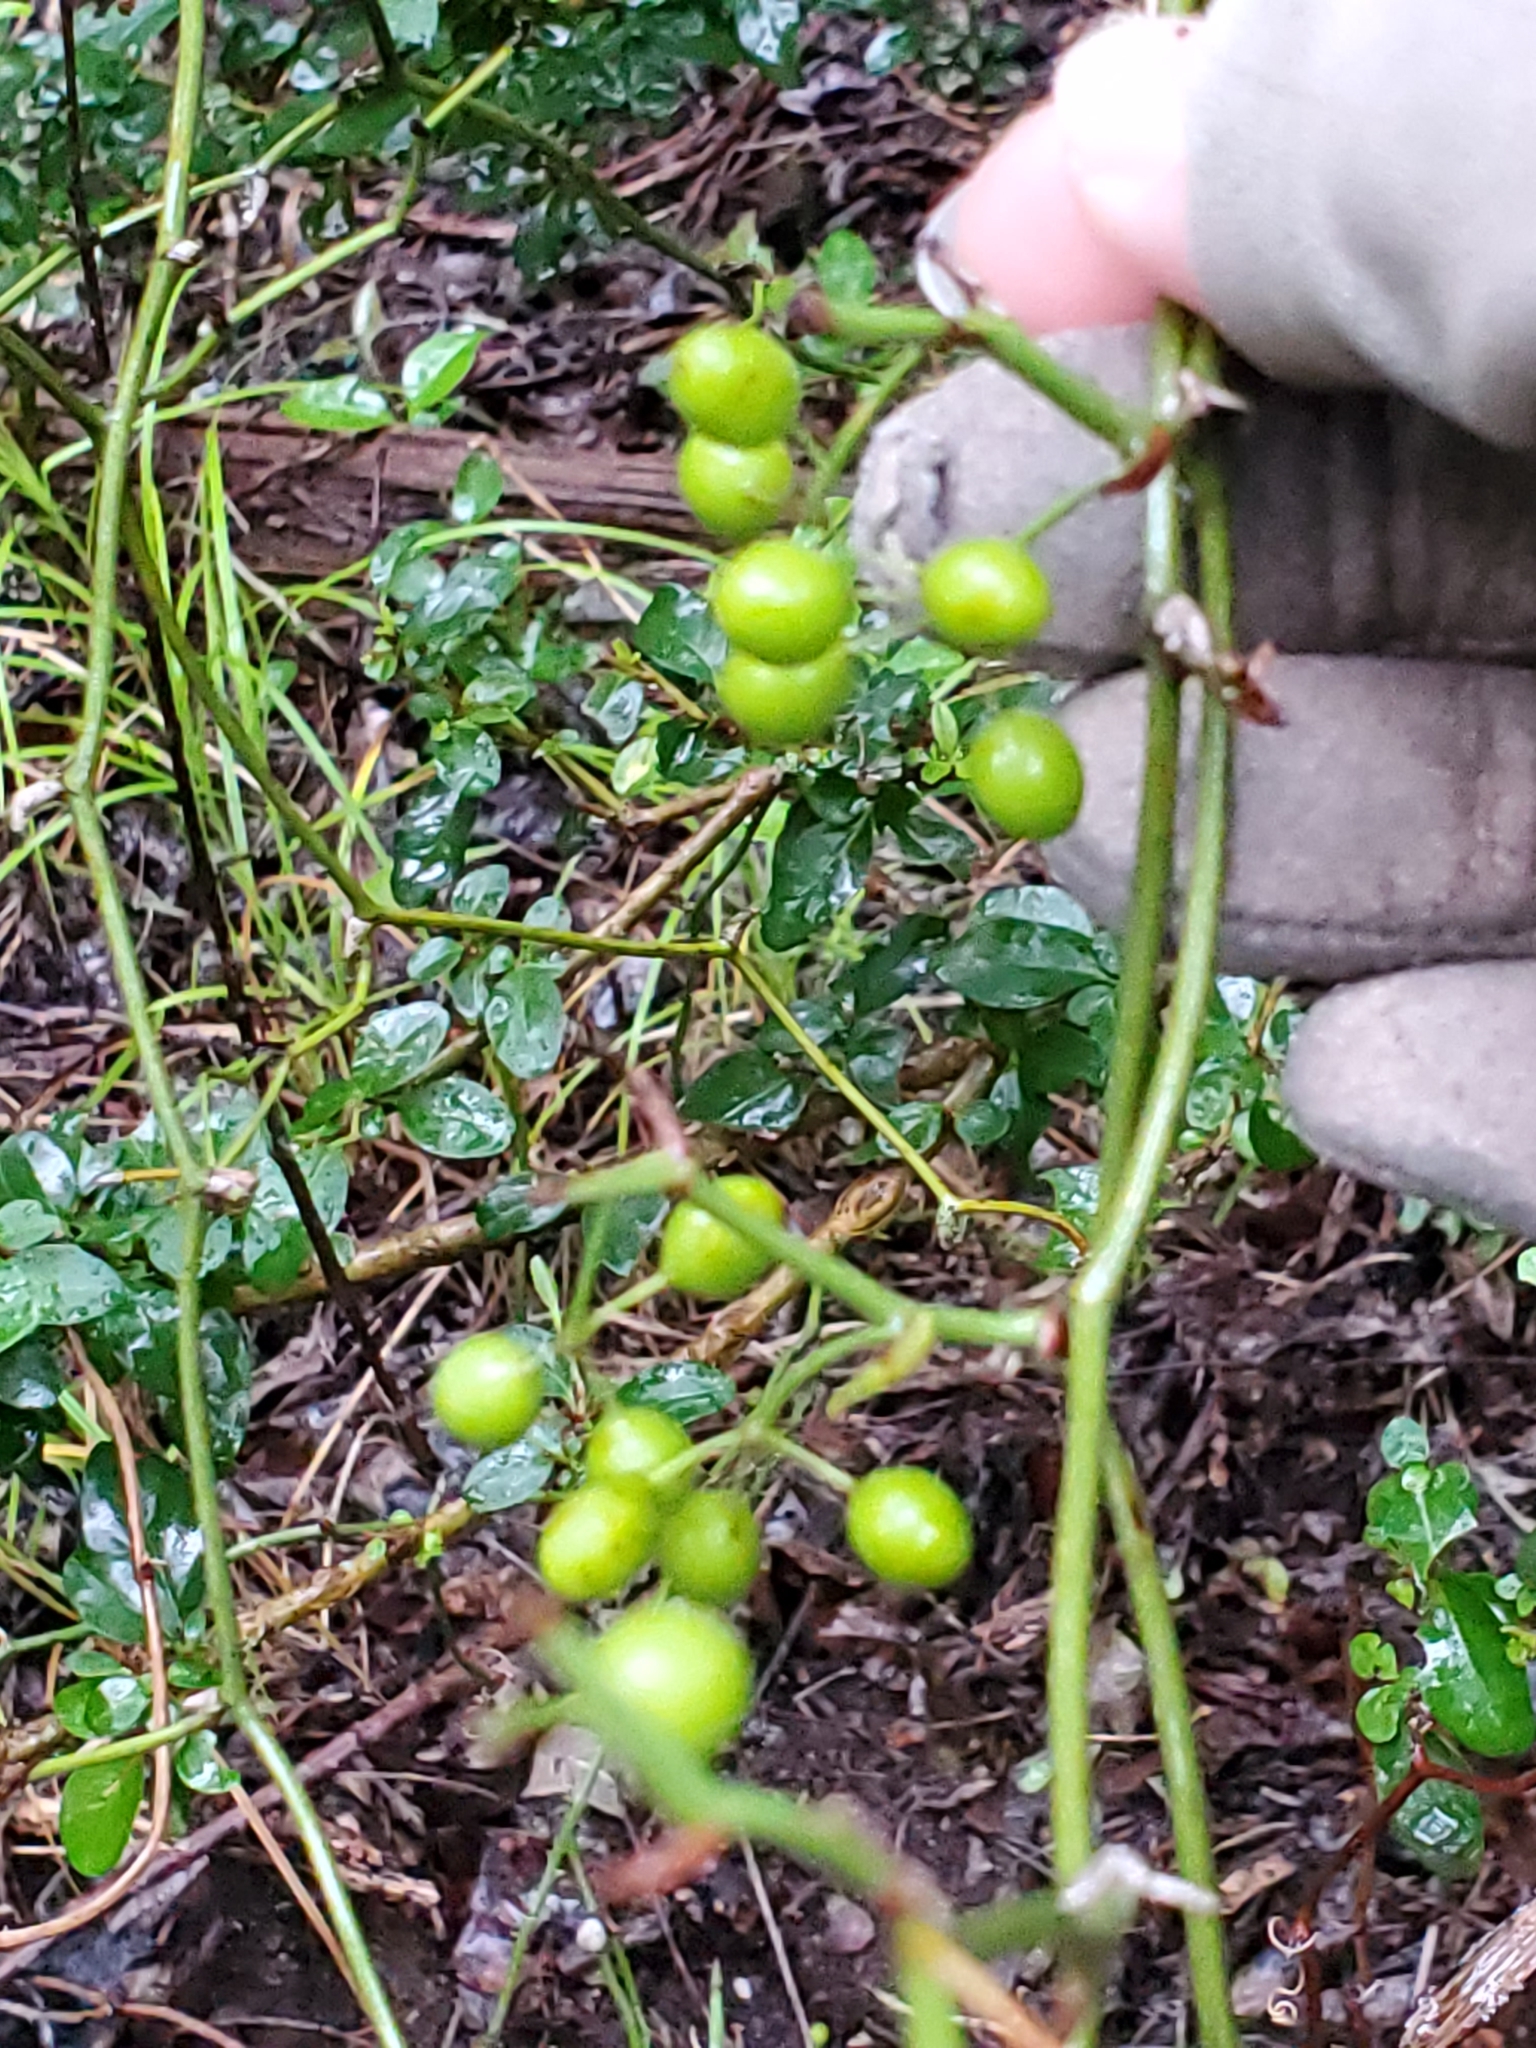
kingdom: Plantae
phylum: Tracheophyta
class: Liliopsida
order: Liliales
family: Smilacaceae
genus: Smilax
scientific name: Smilax bona-nox
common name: Catbrier
